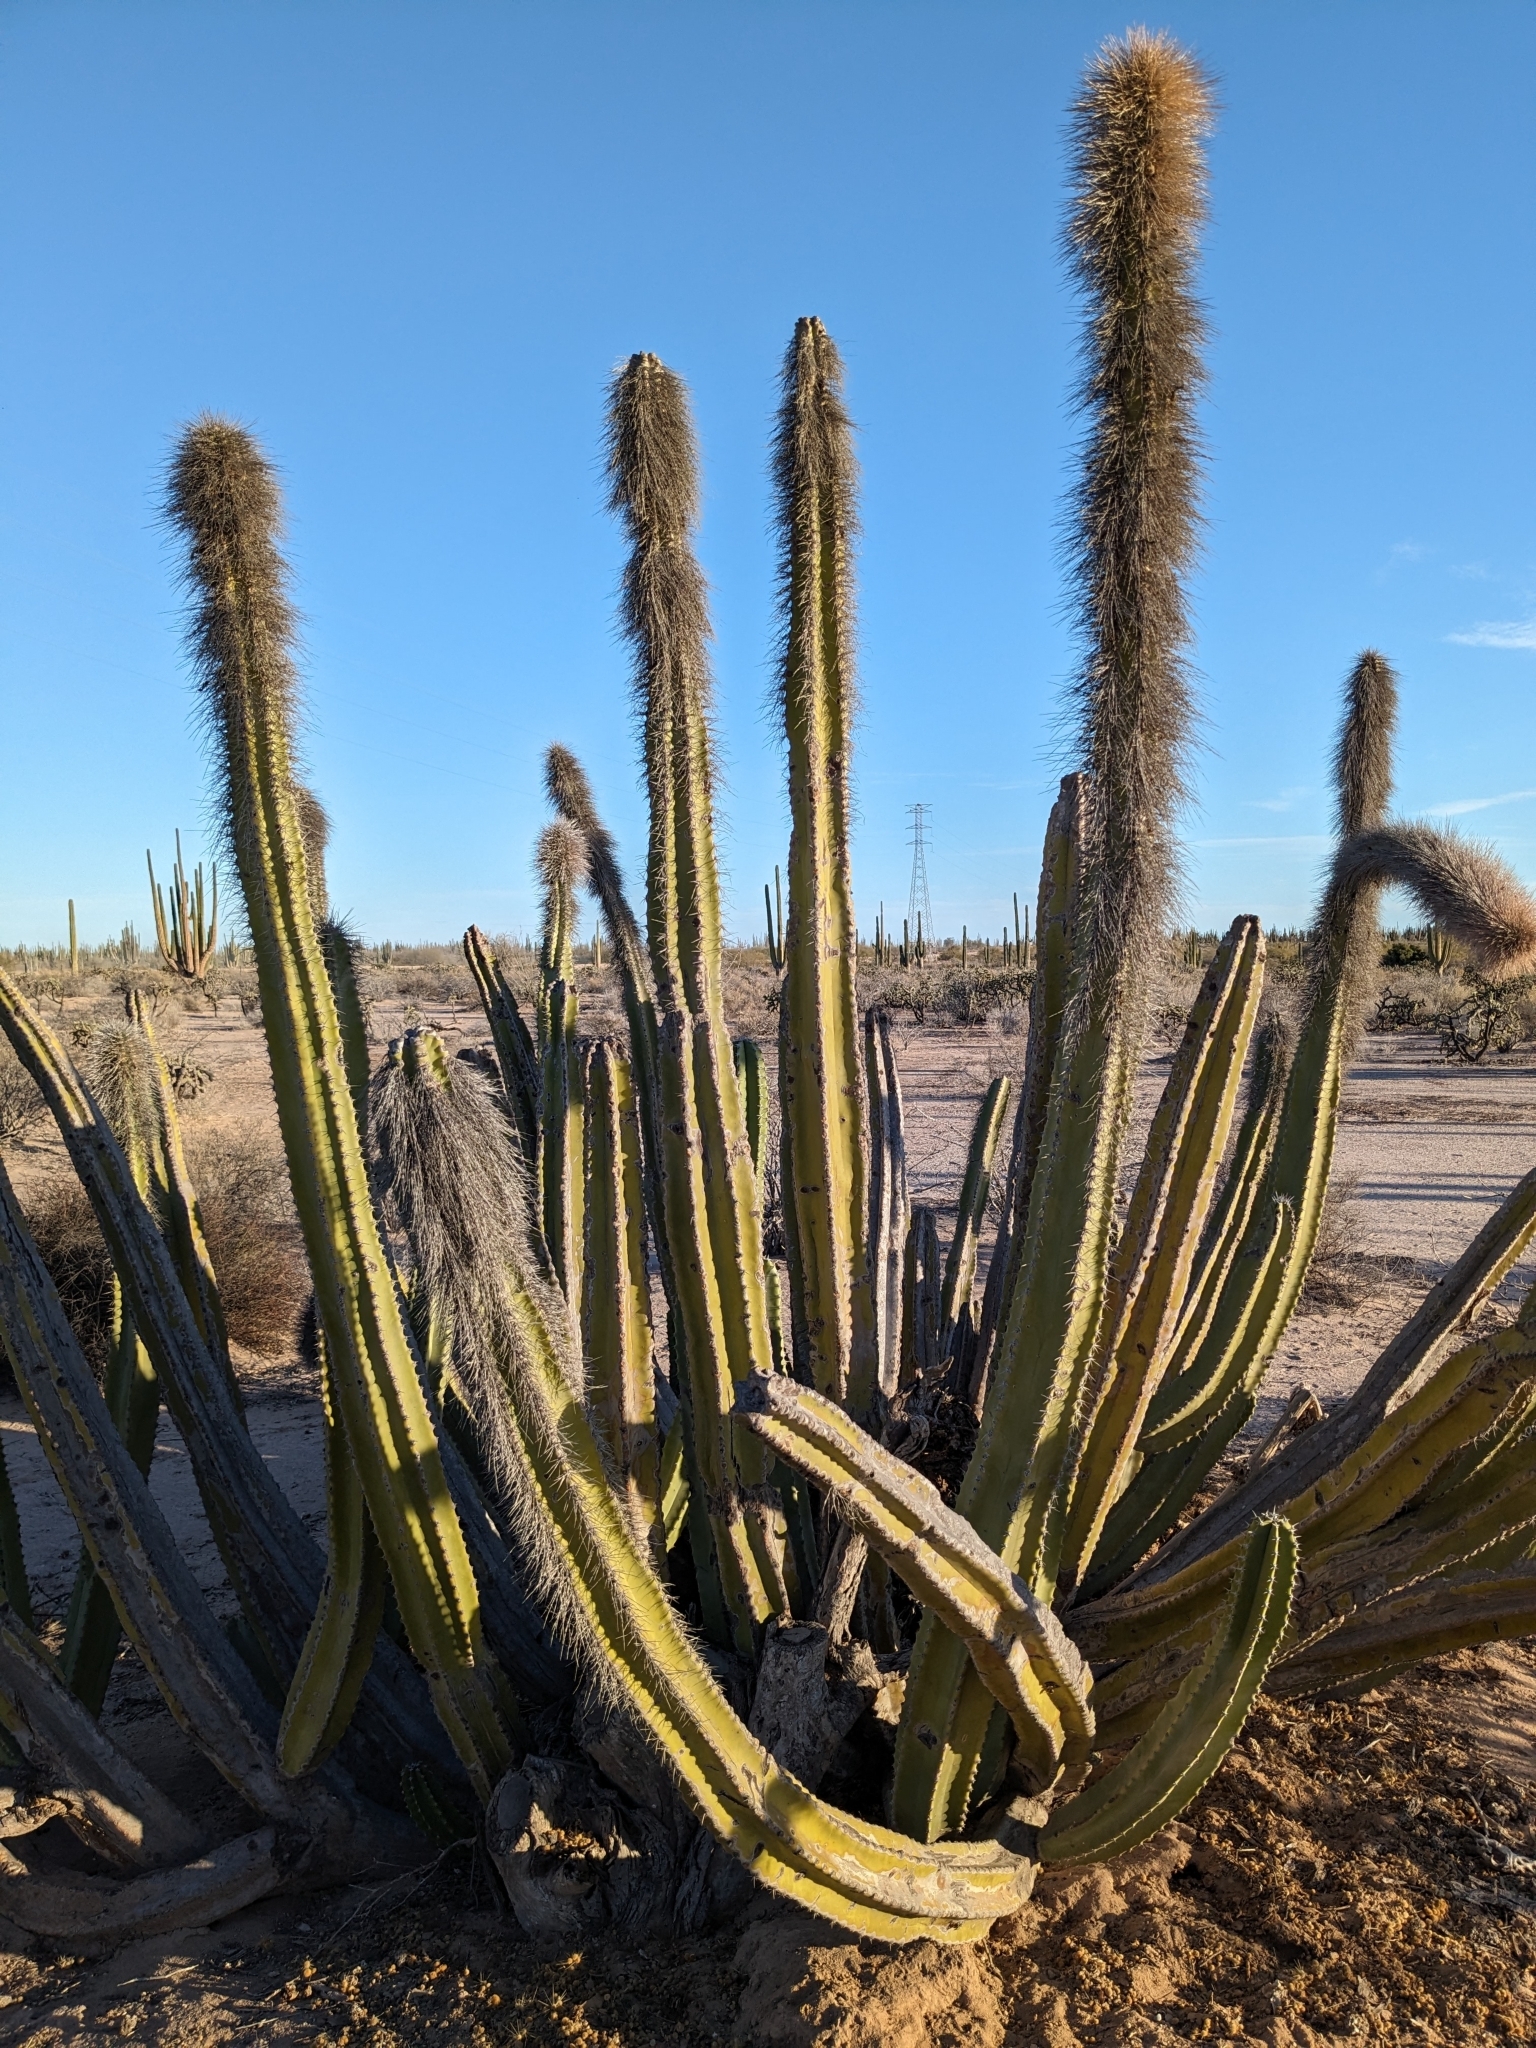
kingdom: Plantae
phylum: Tracheophyta
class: Magnoliopsida
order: Caryophyllales
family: Cactaceae
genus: Pachycereus
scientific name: Pachycereus schottii
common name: Senita cactus
